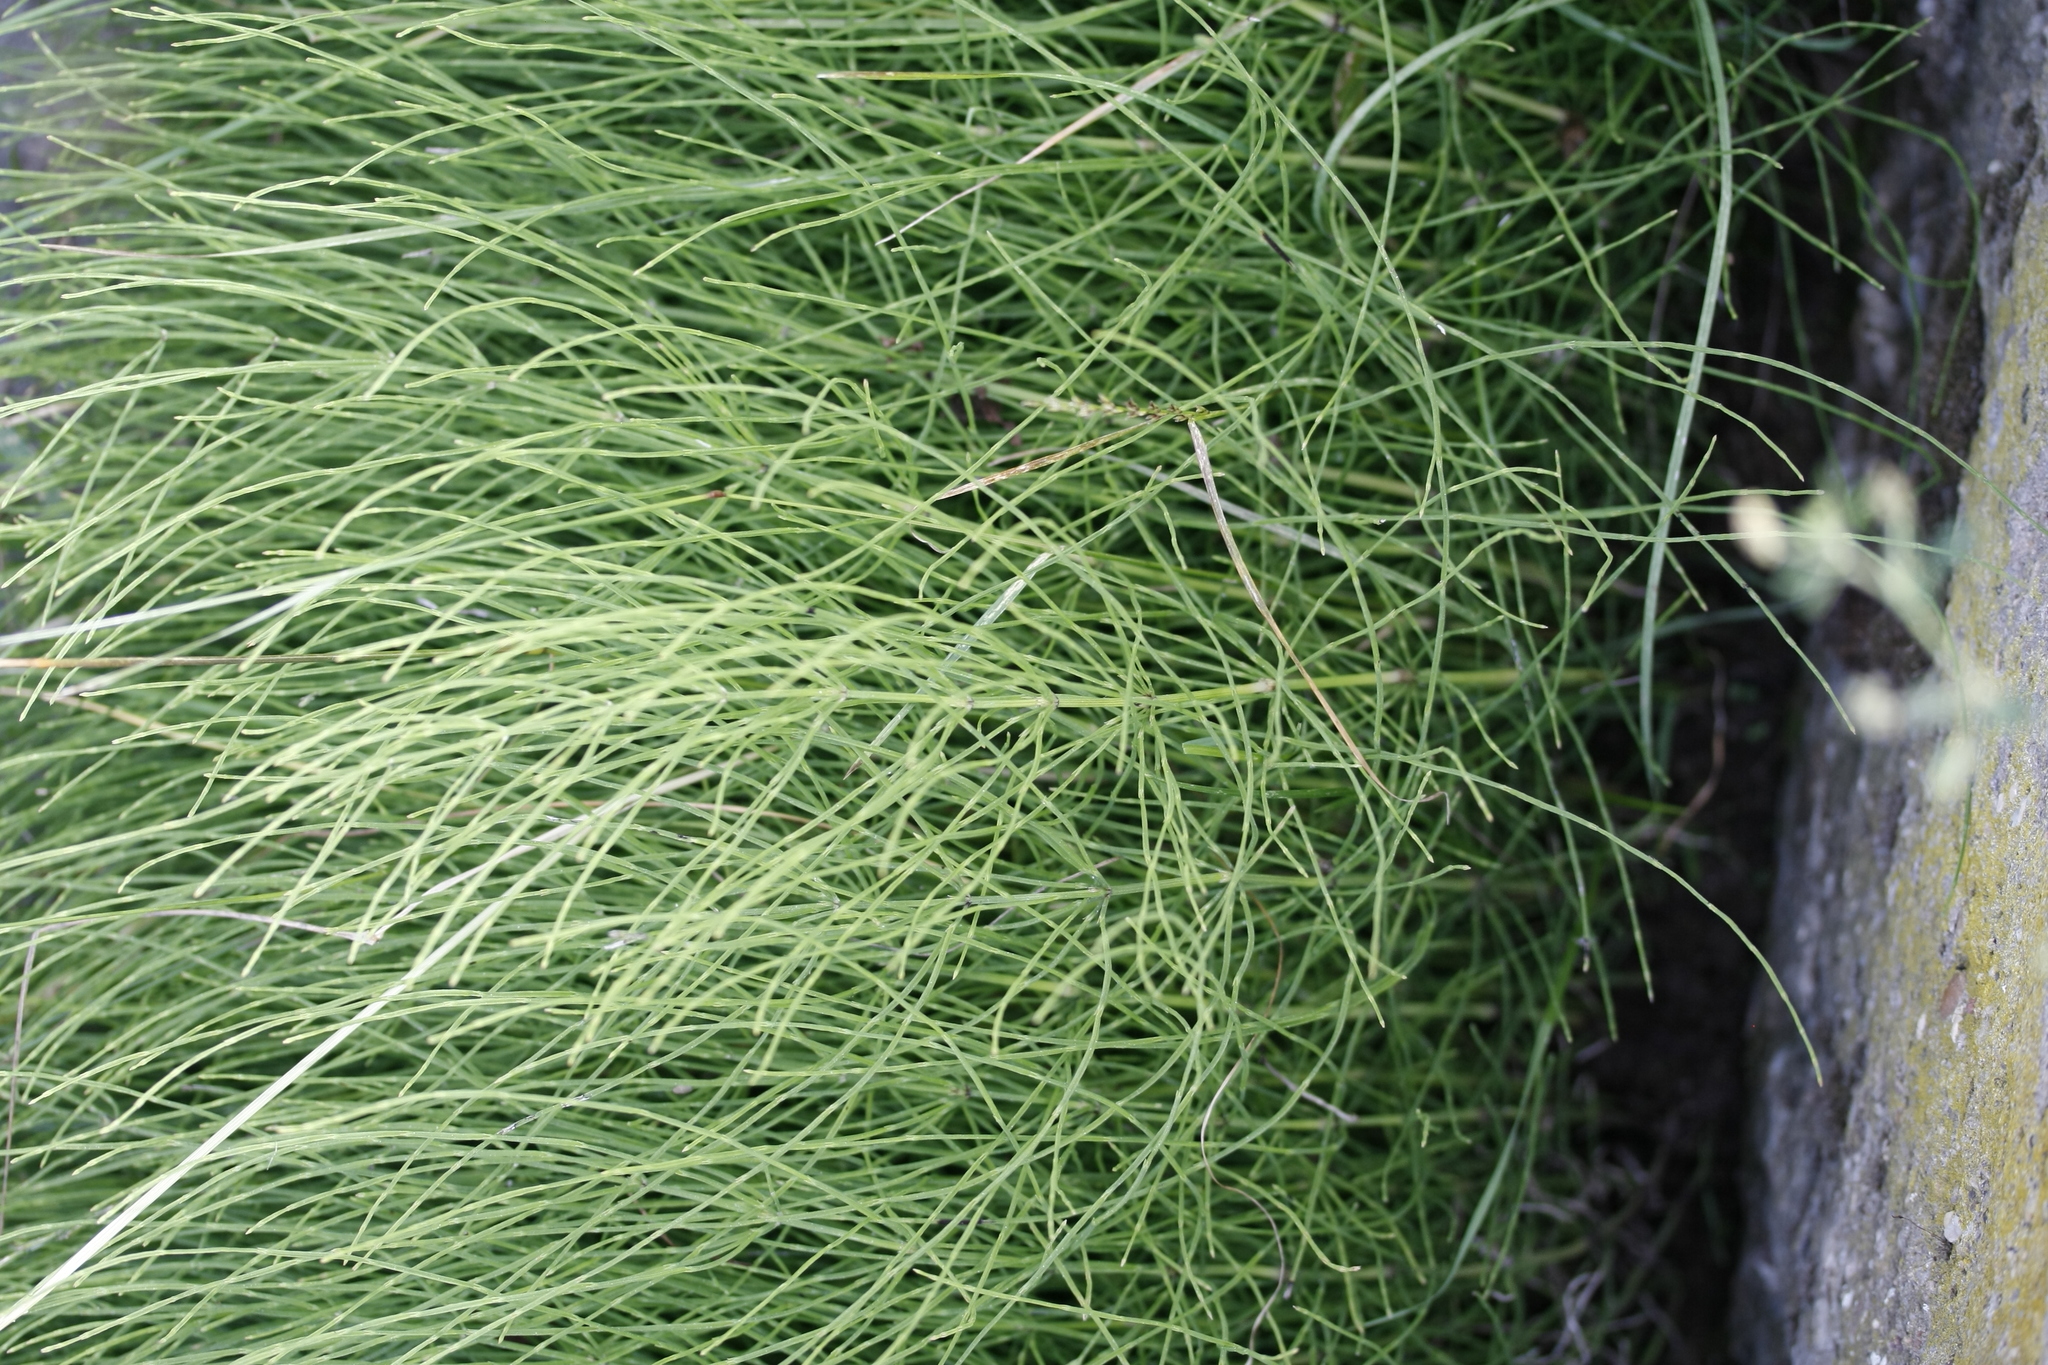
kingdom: Plantae
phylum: Tracheophyta
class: Polypodiopsida
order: Equisetales
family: Equisetaceae
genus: Equisetum
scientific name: Equisetum arvense
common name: Field horsetail
